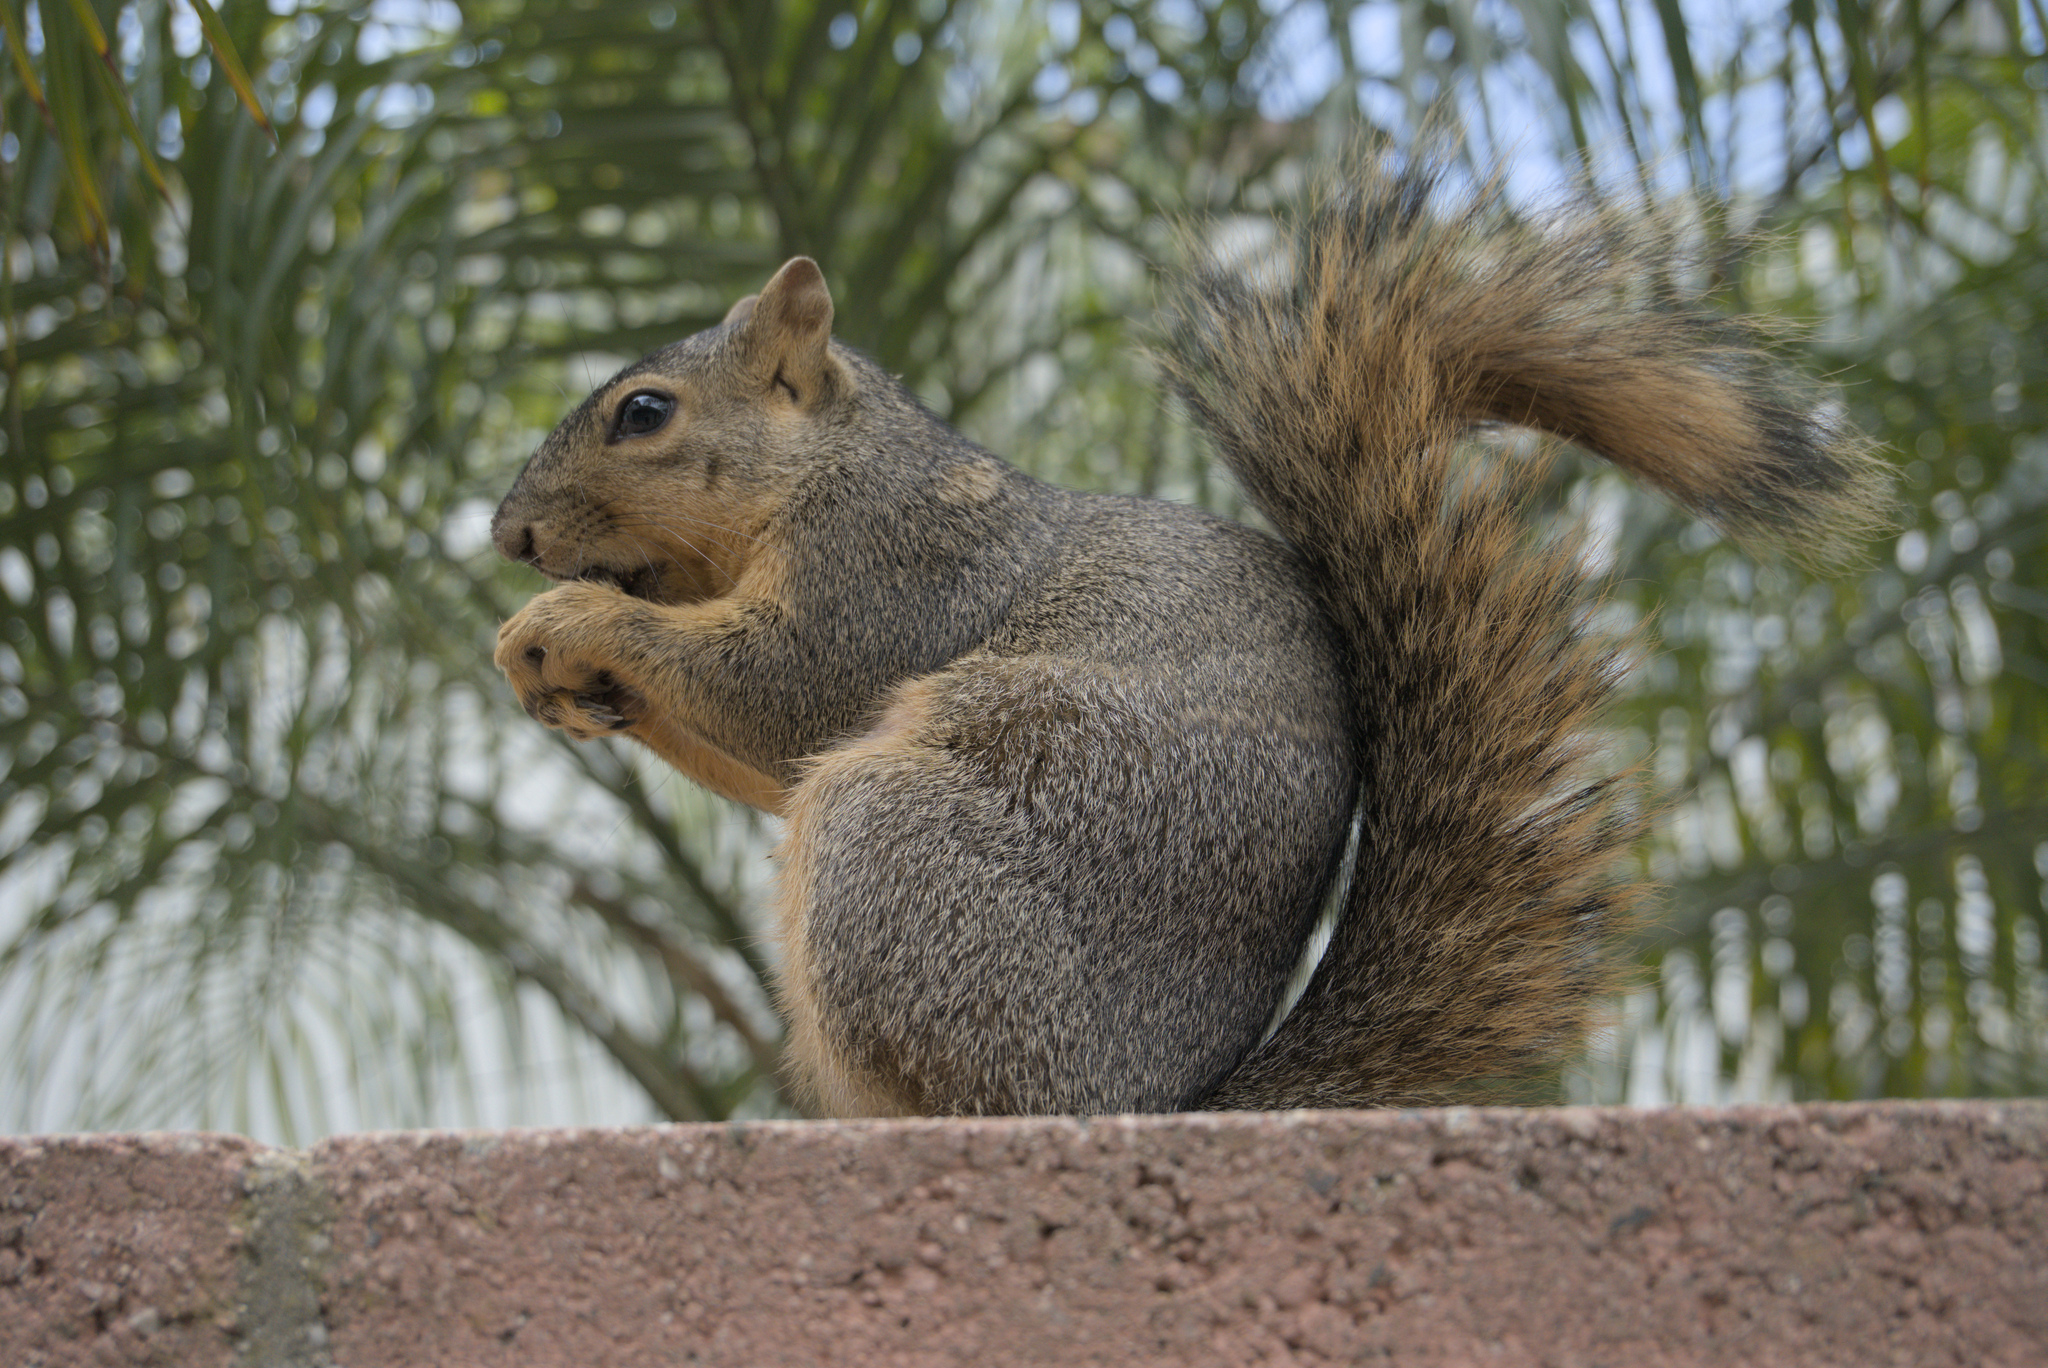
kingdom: Animalia
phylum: Chordata
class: Mammalia
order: Rodentia
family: Sciuridae
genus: Sciurus
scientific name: Sciurus niger
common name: Fox squirrel
